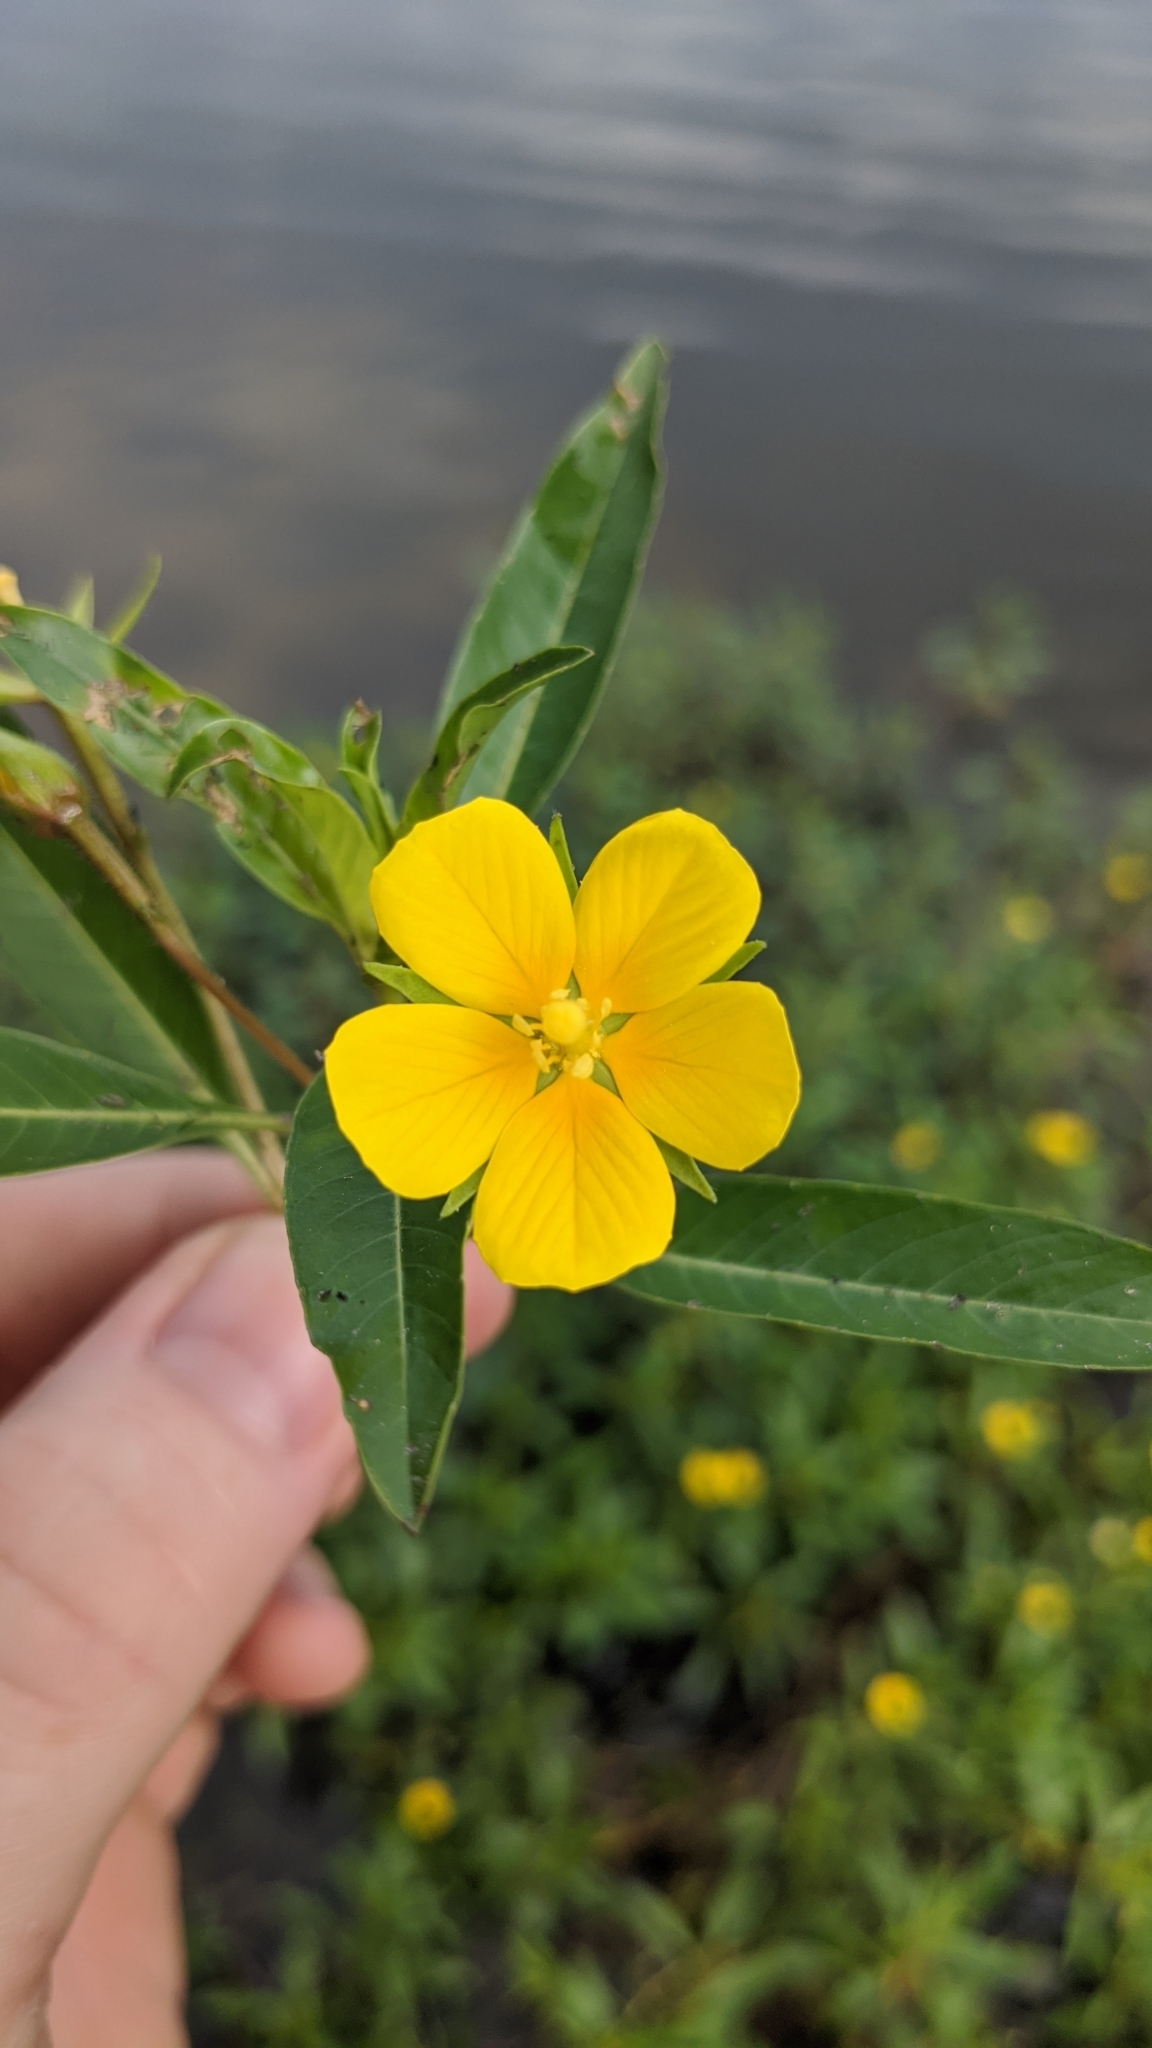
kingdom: Plantae
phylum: Tracheophyta
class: Magnoliopsida
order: Myrtales
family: Onagraceae
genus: Ludwigia
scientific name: Ludwigia peploides
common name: Floating primrose-willow
